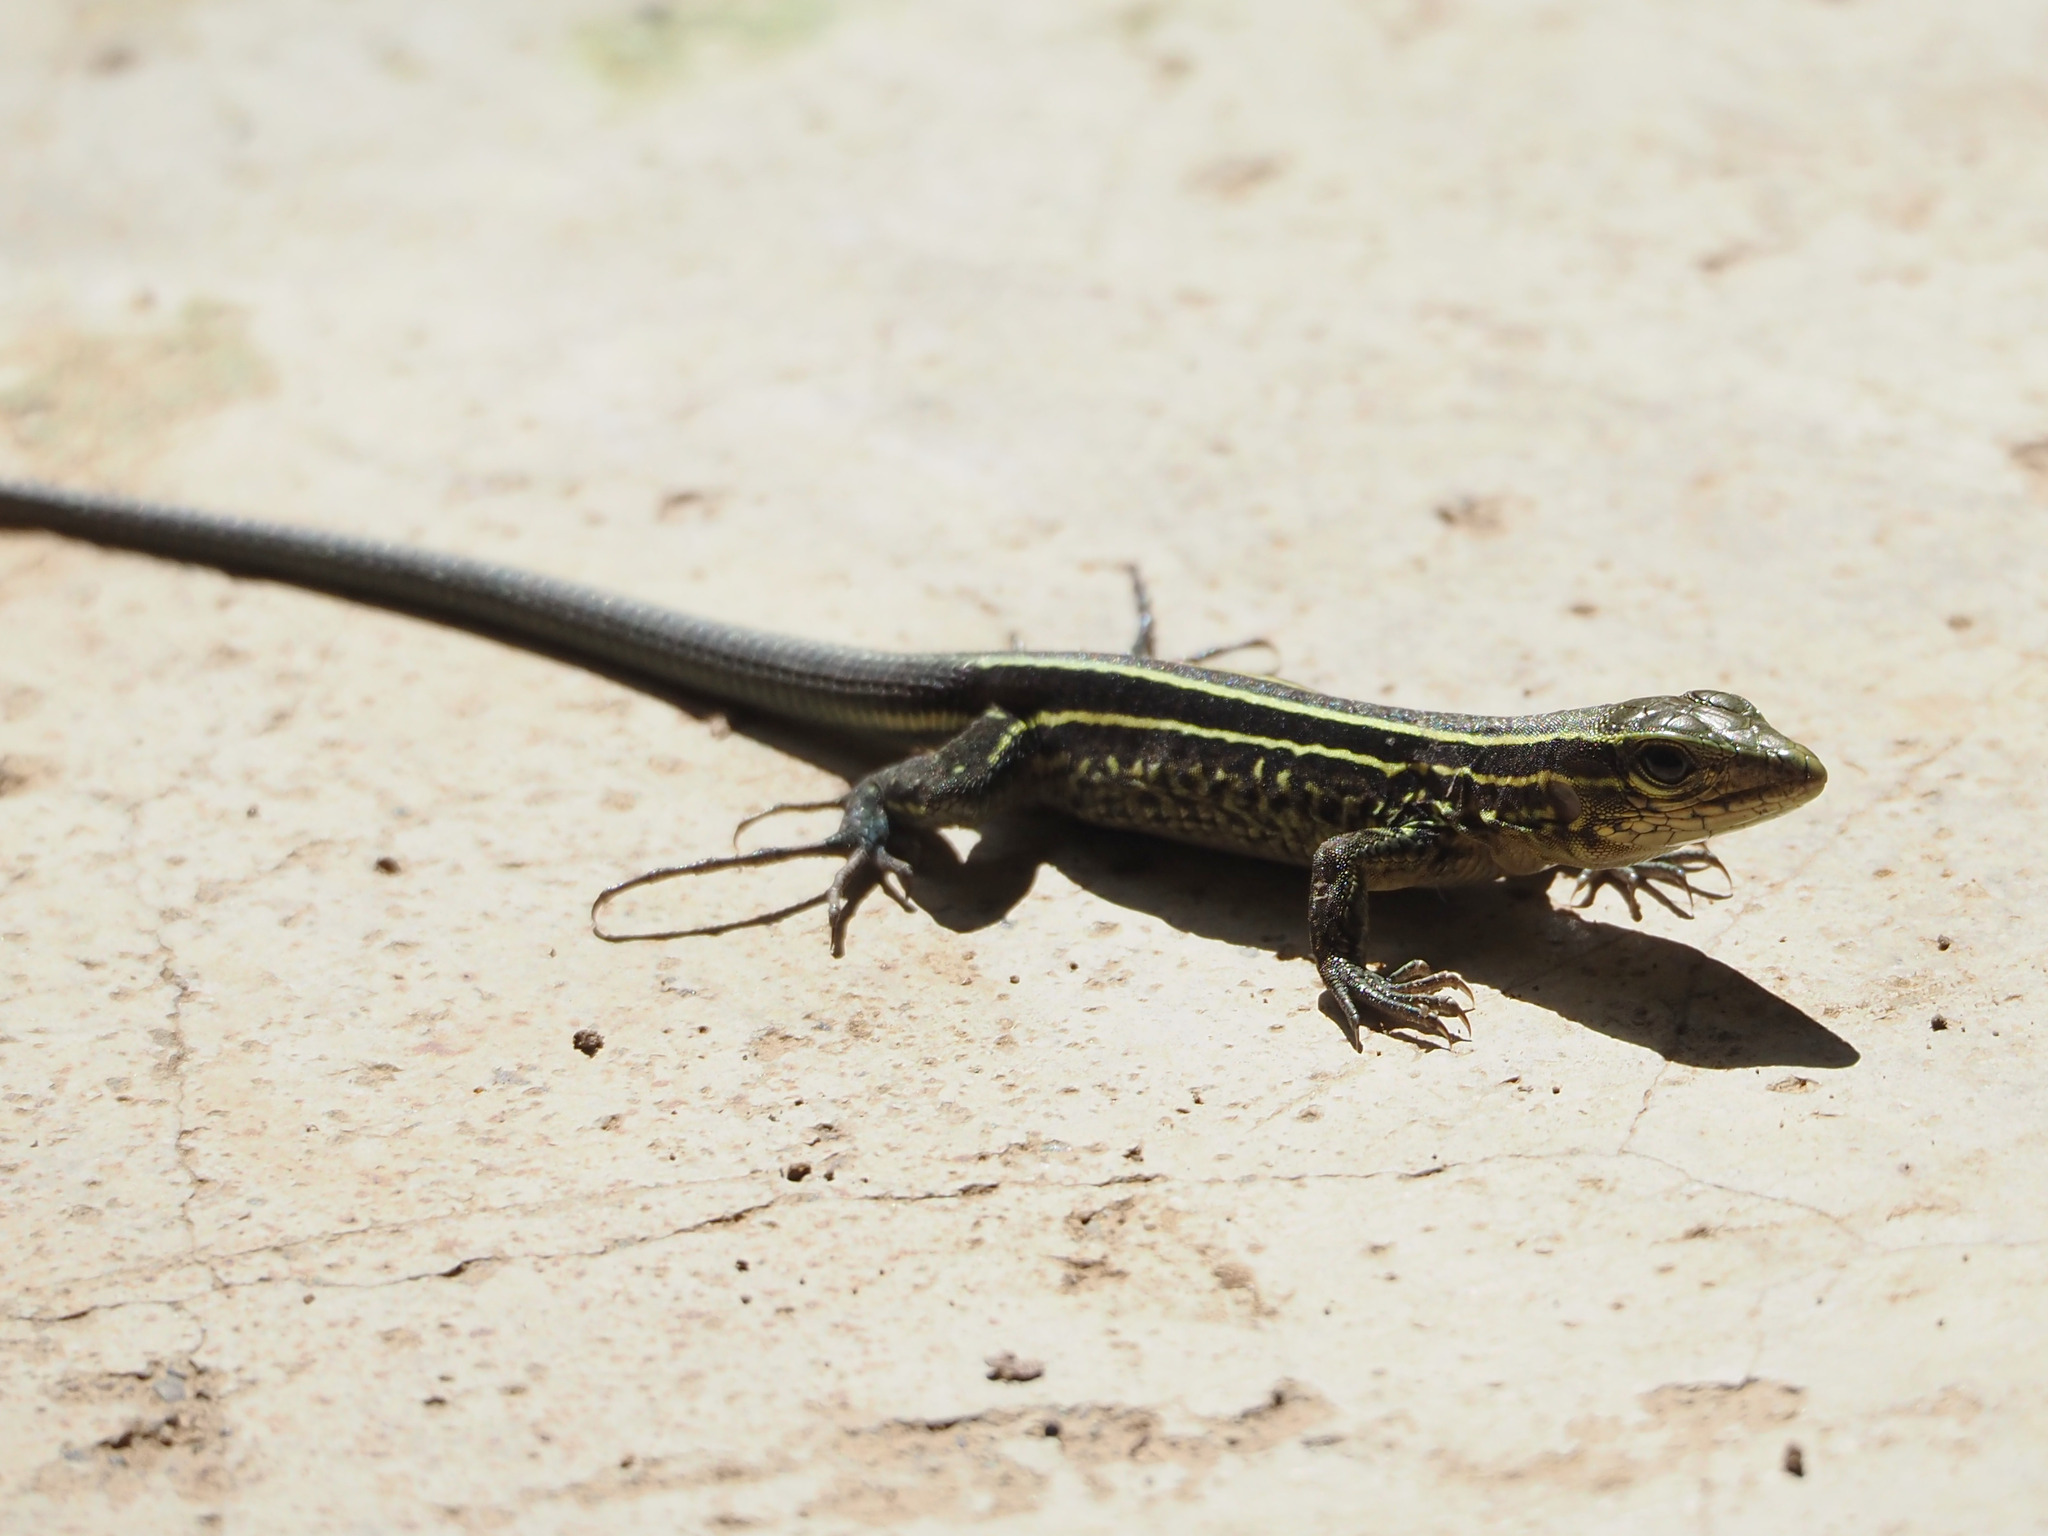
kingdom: Animalia
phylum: Chordata
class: Squamata
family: Teiidae
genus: Holcosus
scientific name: Holcosus quadrilineatus
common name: Four-lined ameiva
